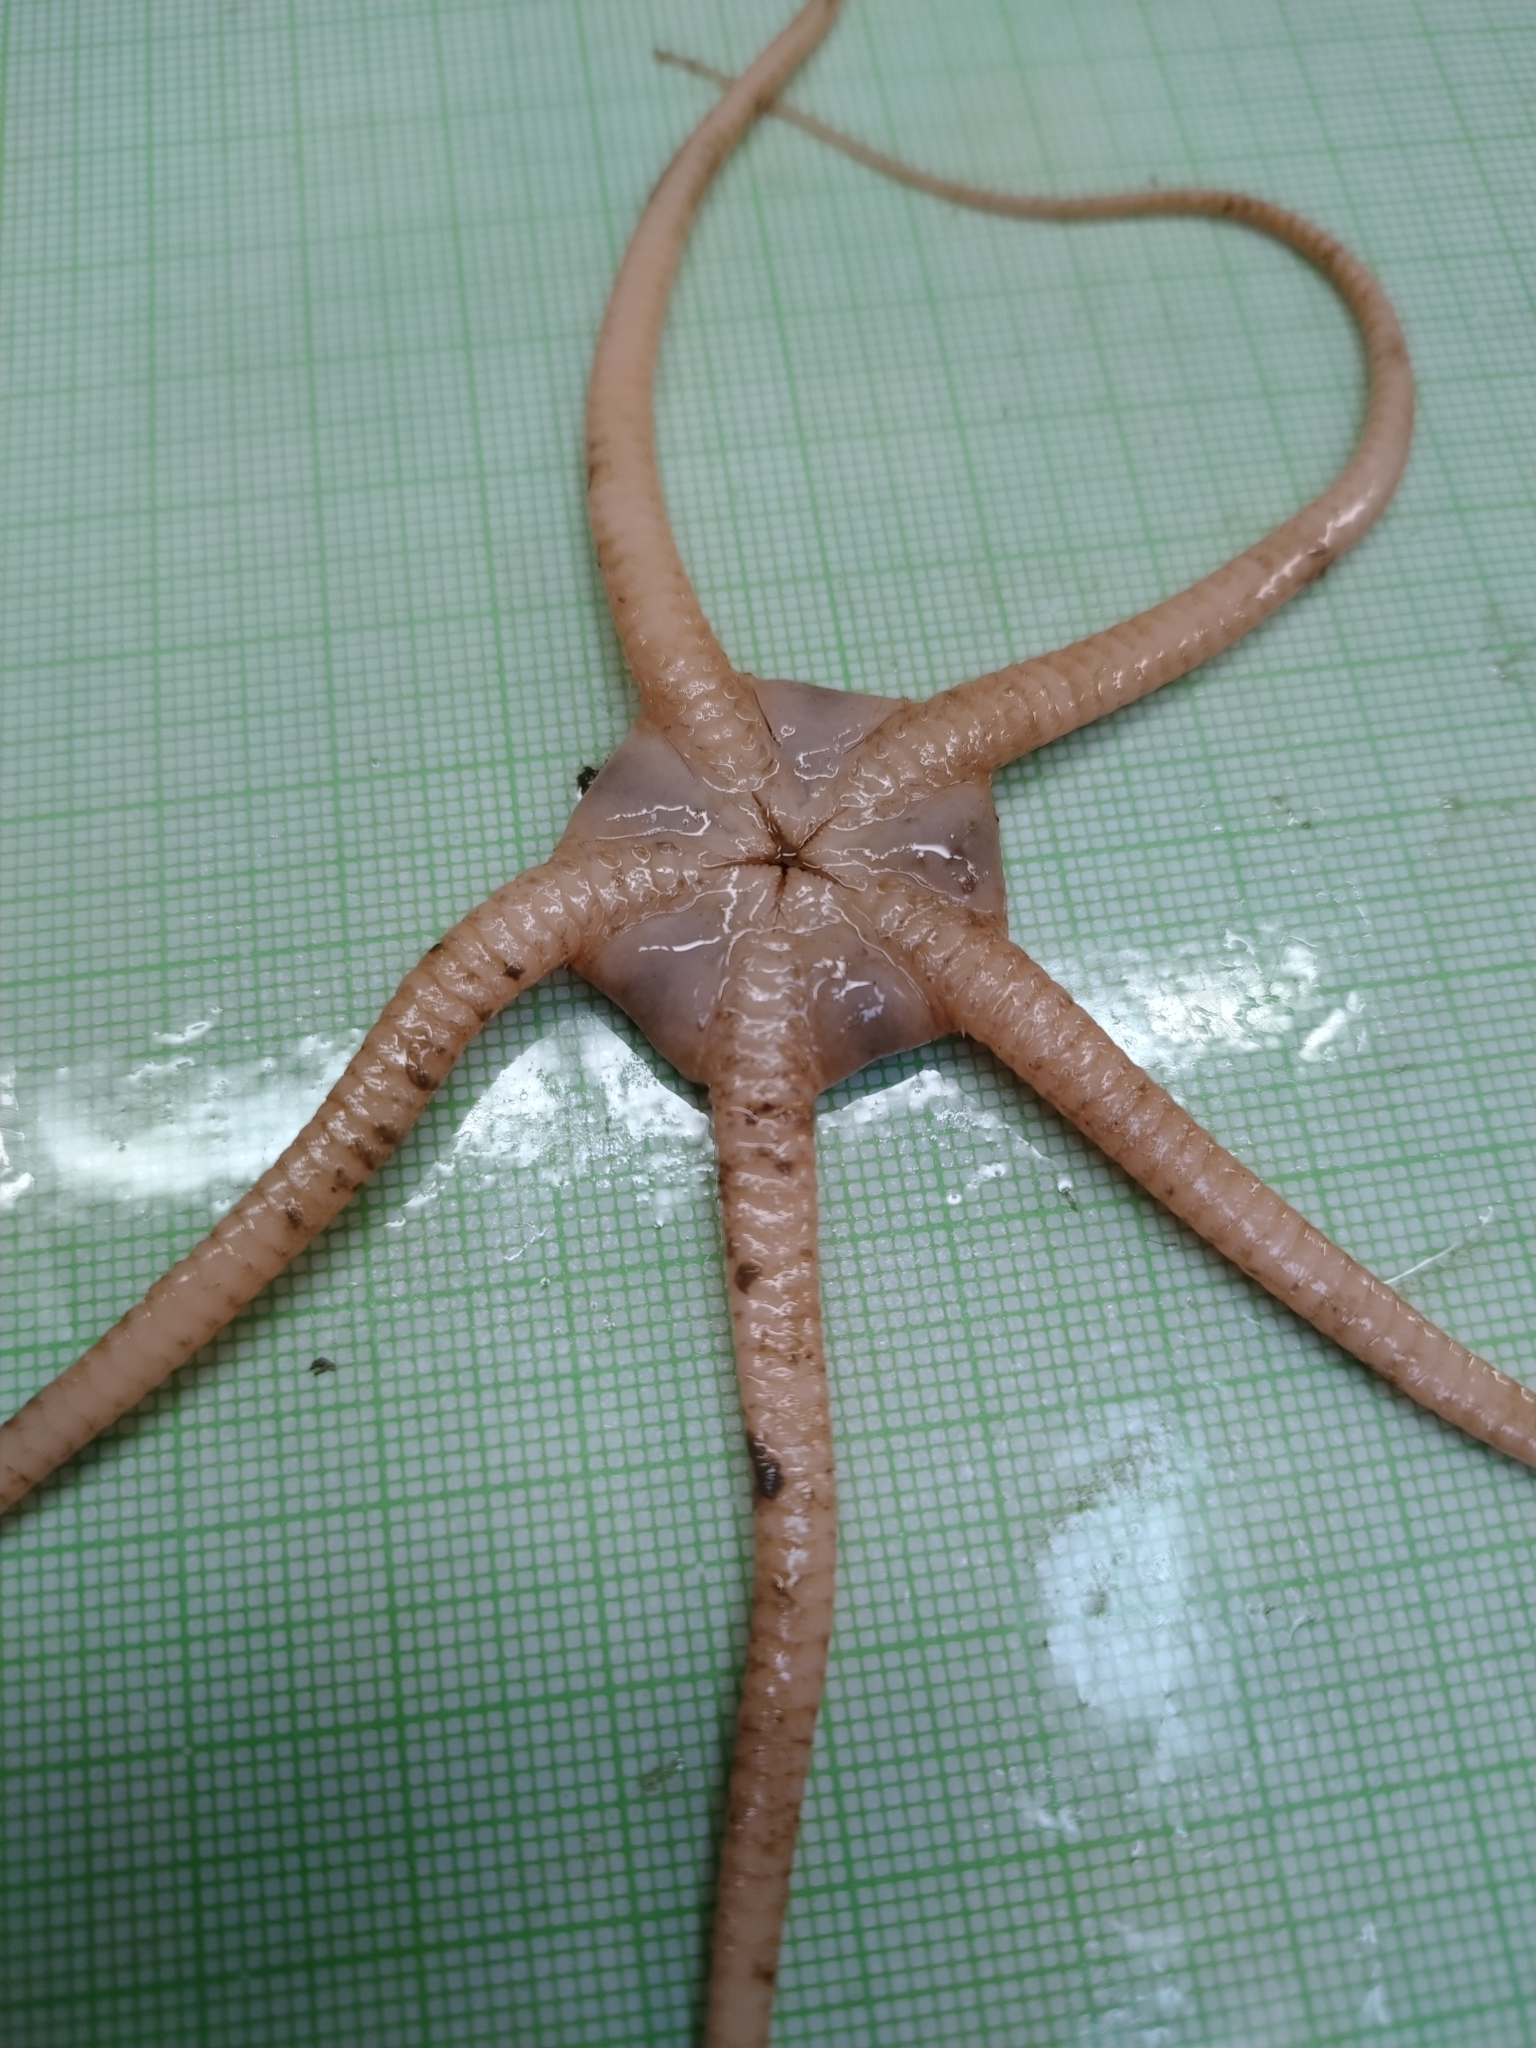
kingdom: Animalia
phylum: Echinodermata
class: Ophiuroidea
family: Ophiopyrgidae
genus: Ophiopleura
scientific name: Ophiopleura borealis
